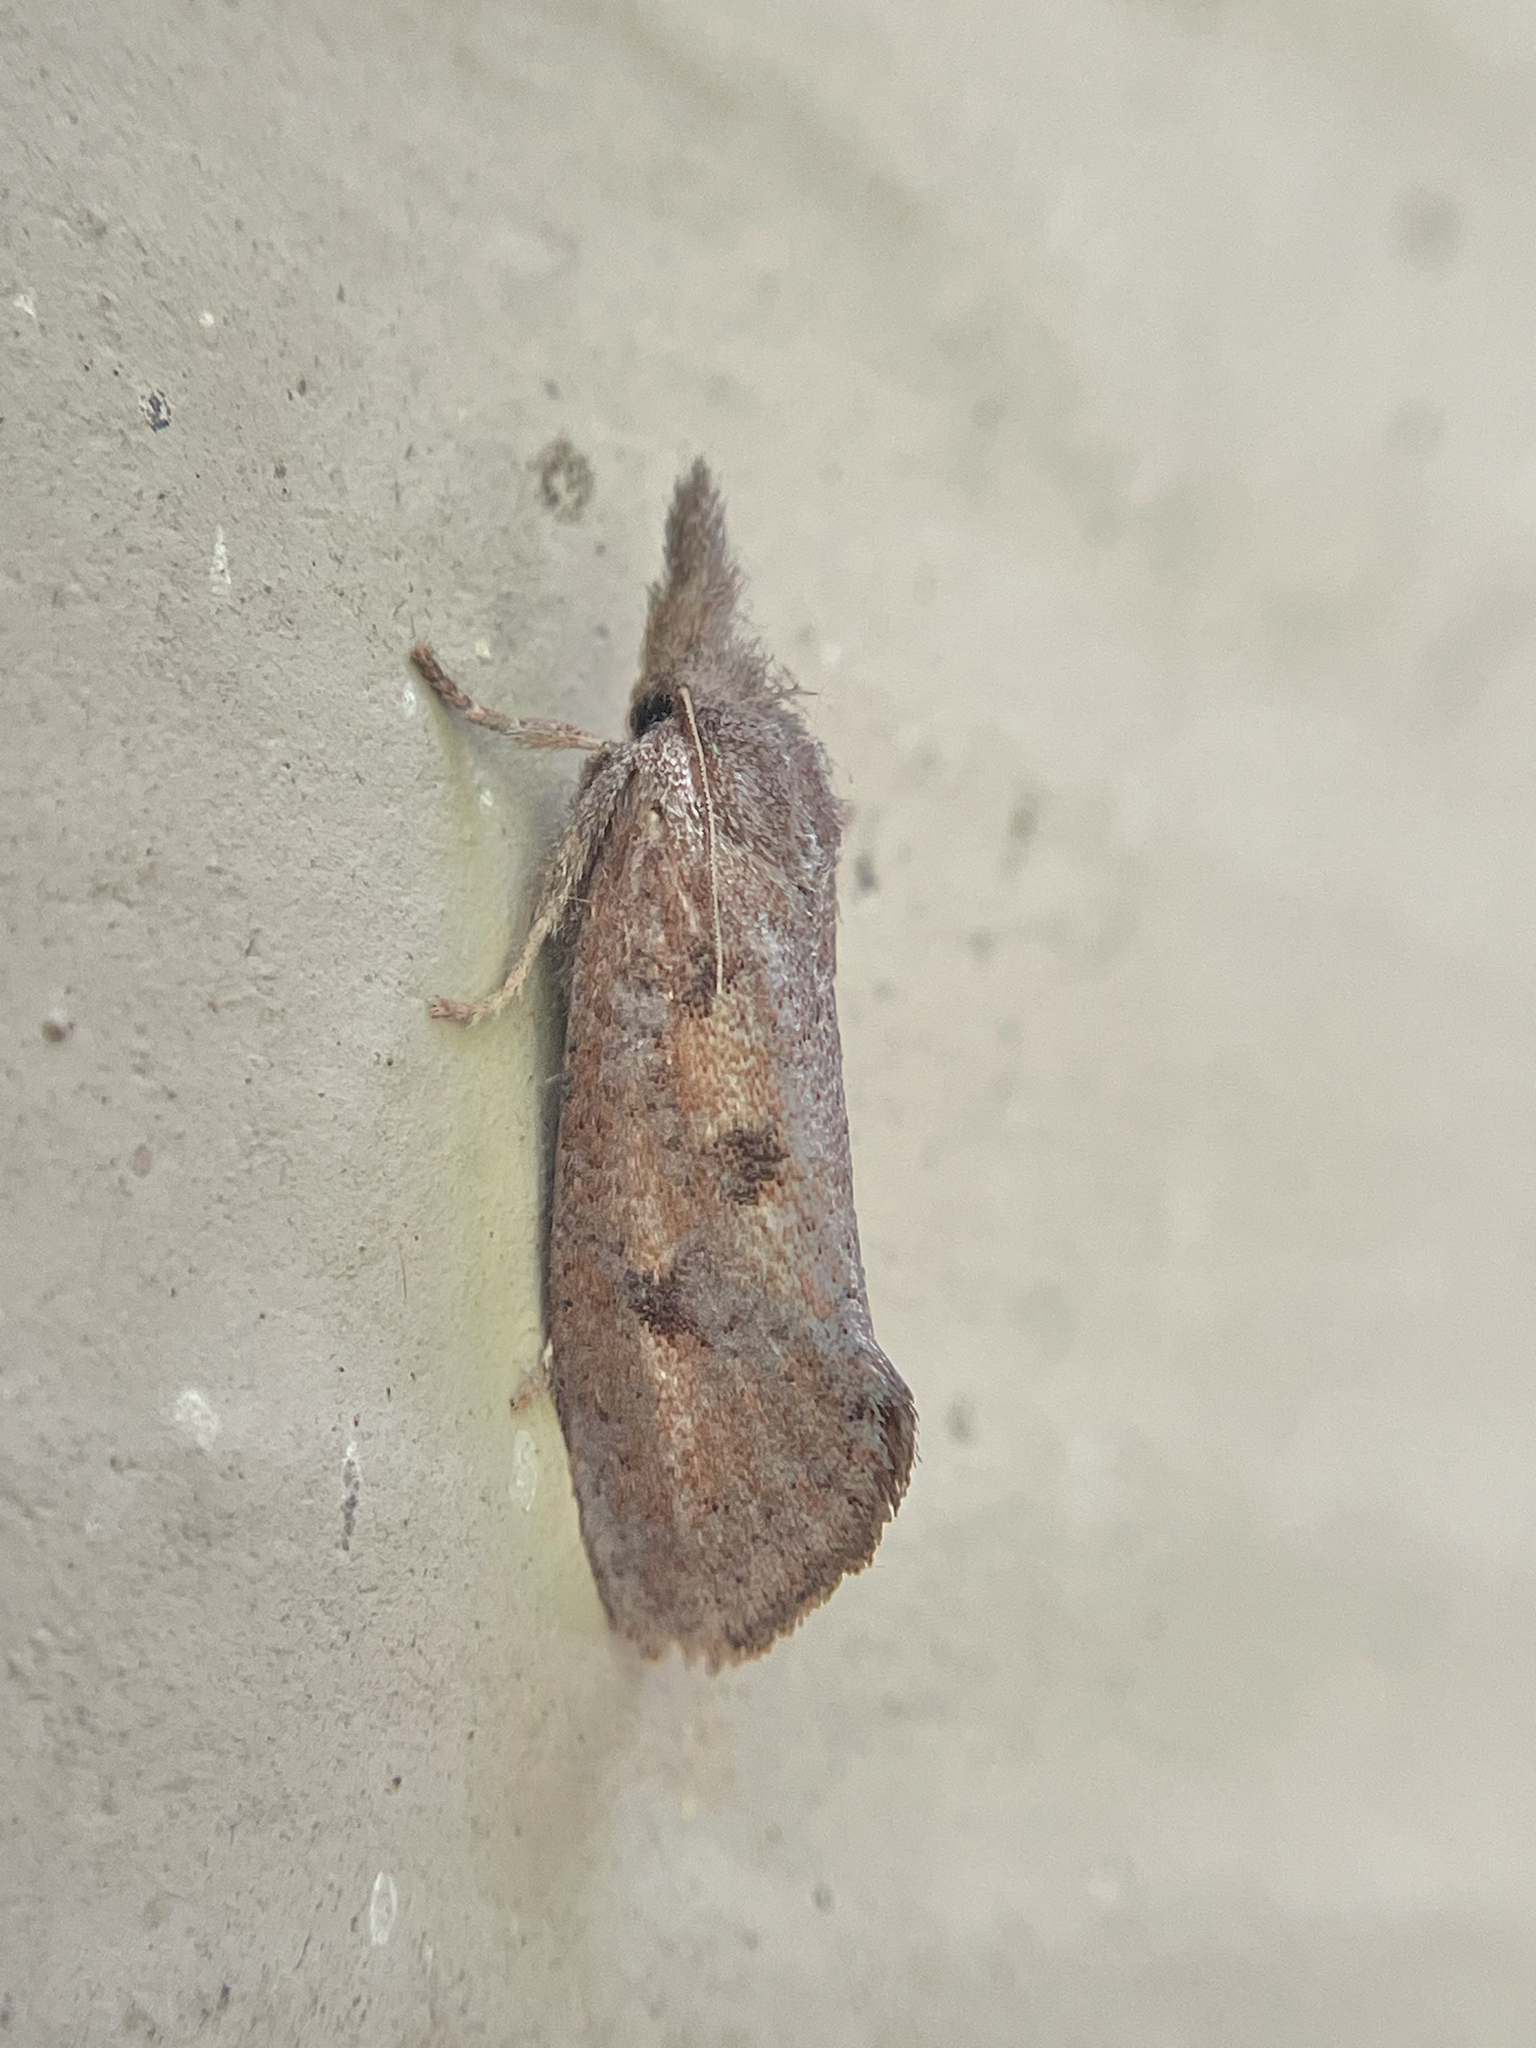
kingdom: Animalia
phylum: Arthropoda
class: Insecta
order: Lepidoptera
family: Tineidae
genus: Acrolophus
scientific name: Acrolophus plumifrontella
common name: Eastern grass tubeworm moth
